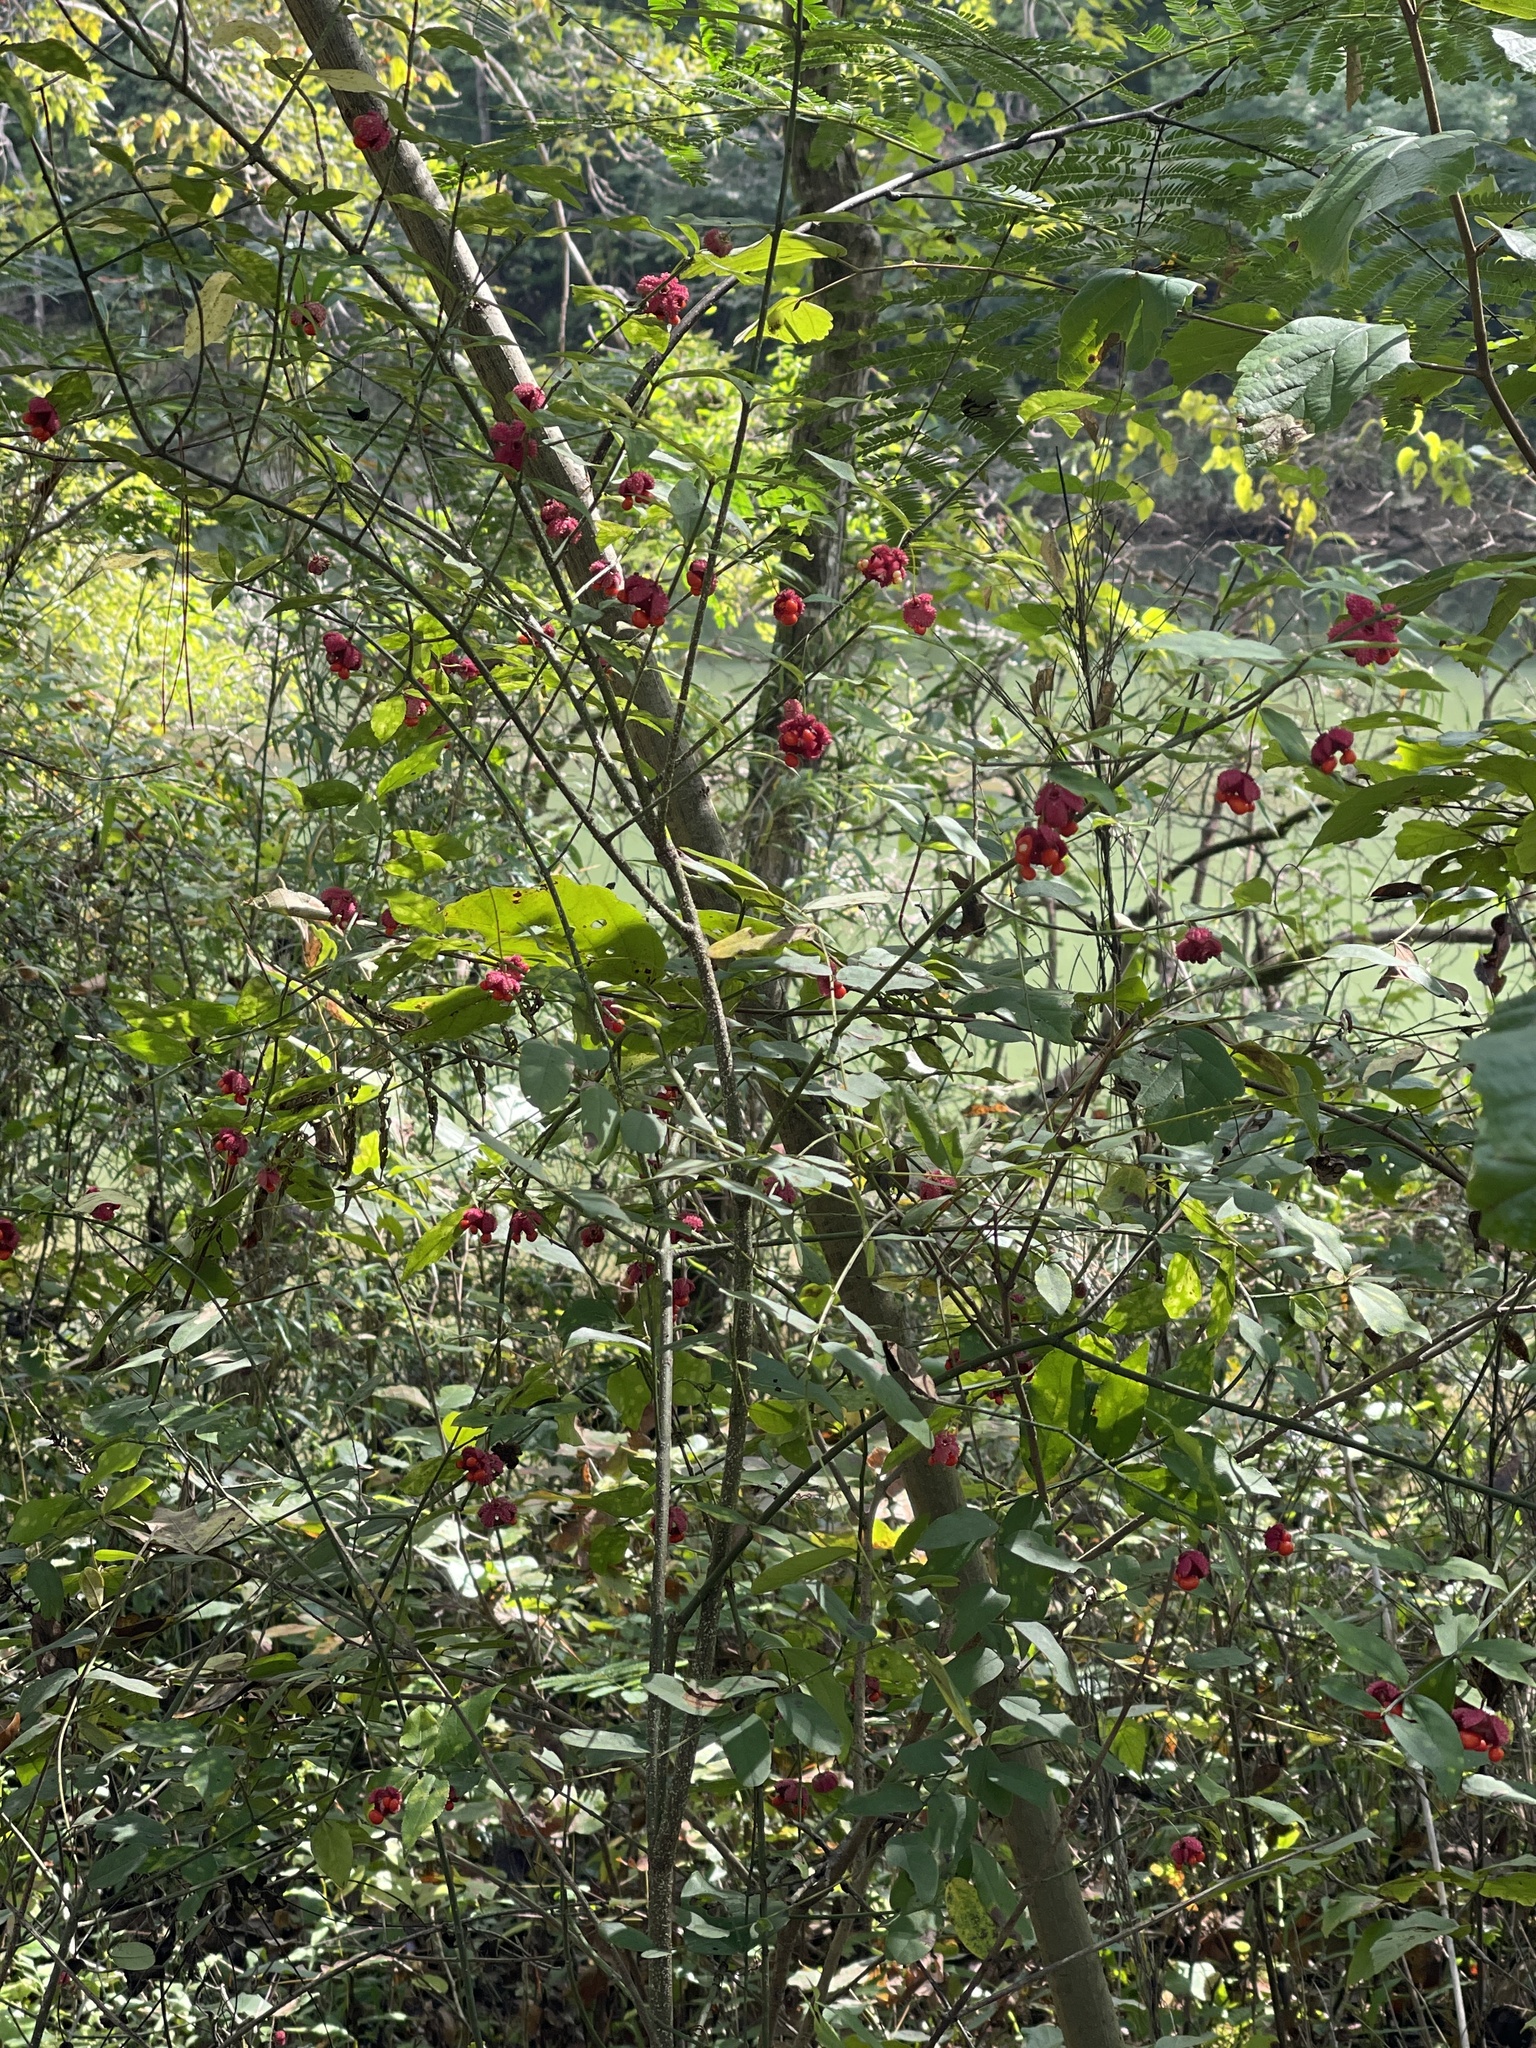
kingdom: Plantae
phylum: Tracheophyta
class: Magnoliopsida
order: Celastrales
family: Celastraceae
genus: Euonymus
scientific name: Euonymus americanus
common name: Bursting-heart
